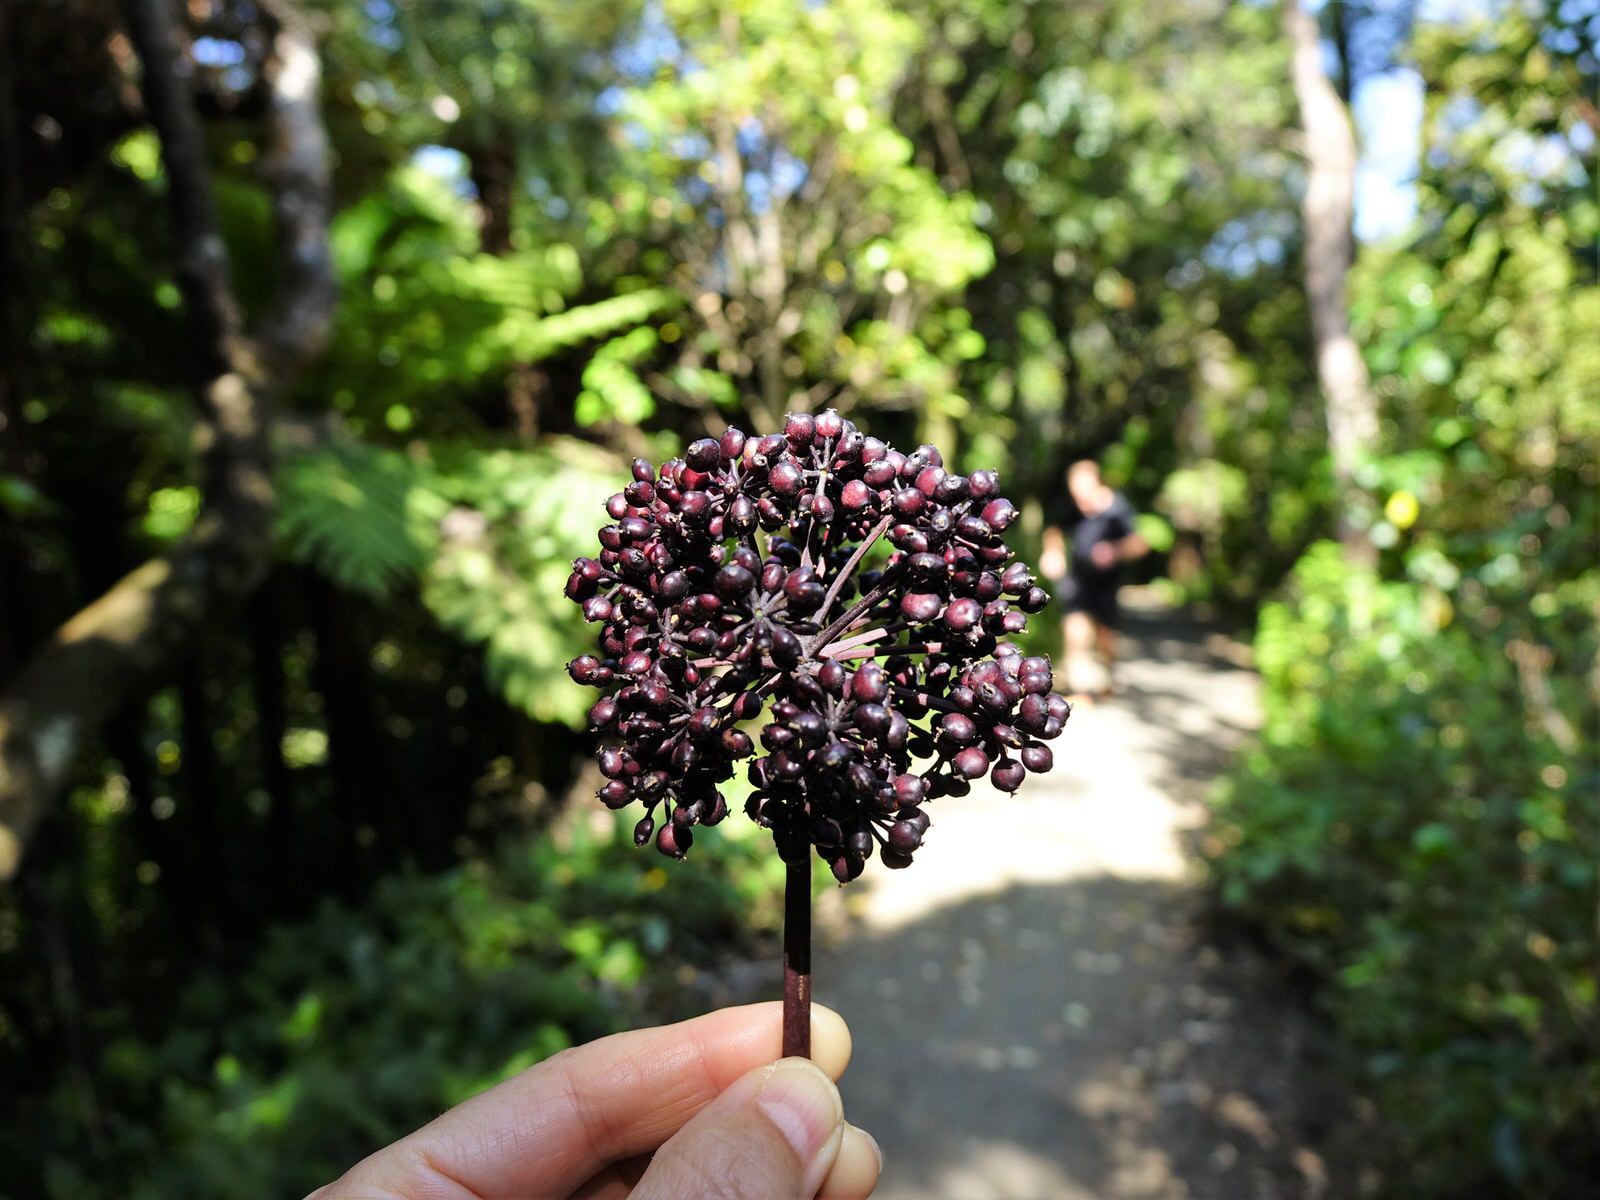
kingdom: Plantae
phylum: Tracheophyta
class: Magnoliopsida
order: Apiales
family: Araliaceae
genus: Neopanax
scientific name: Neopanax arboreus
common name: Five-fingers
